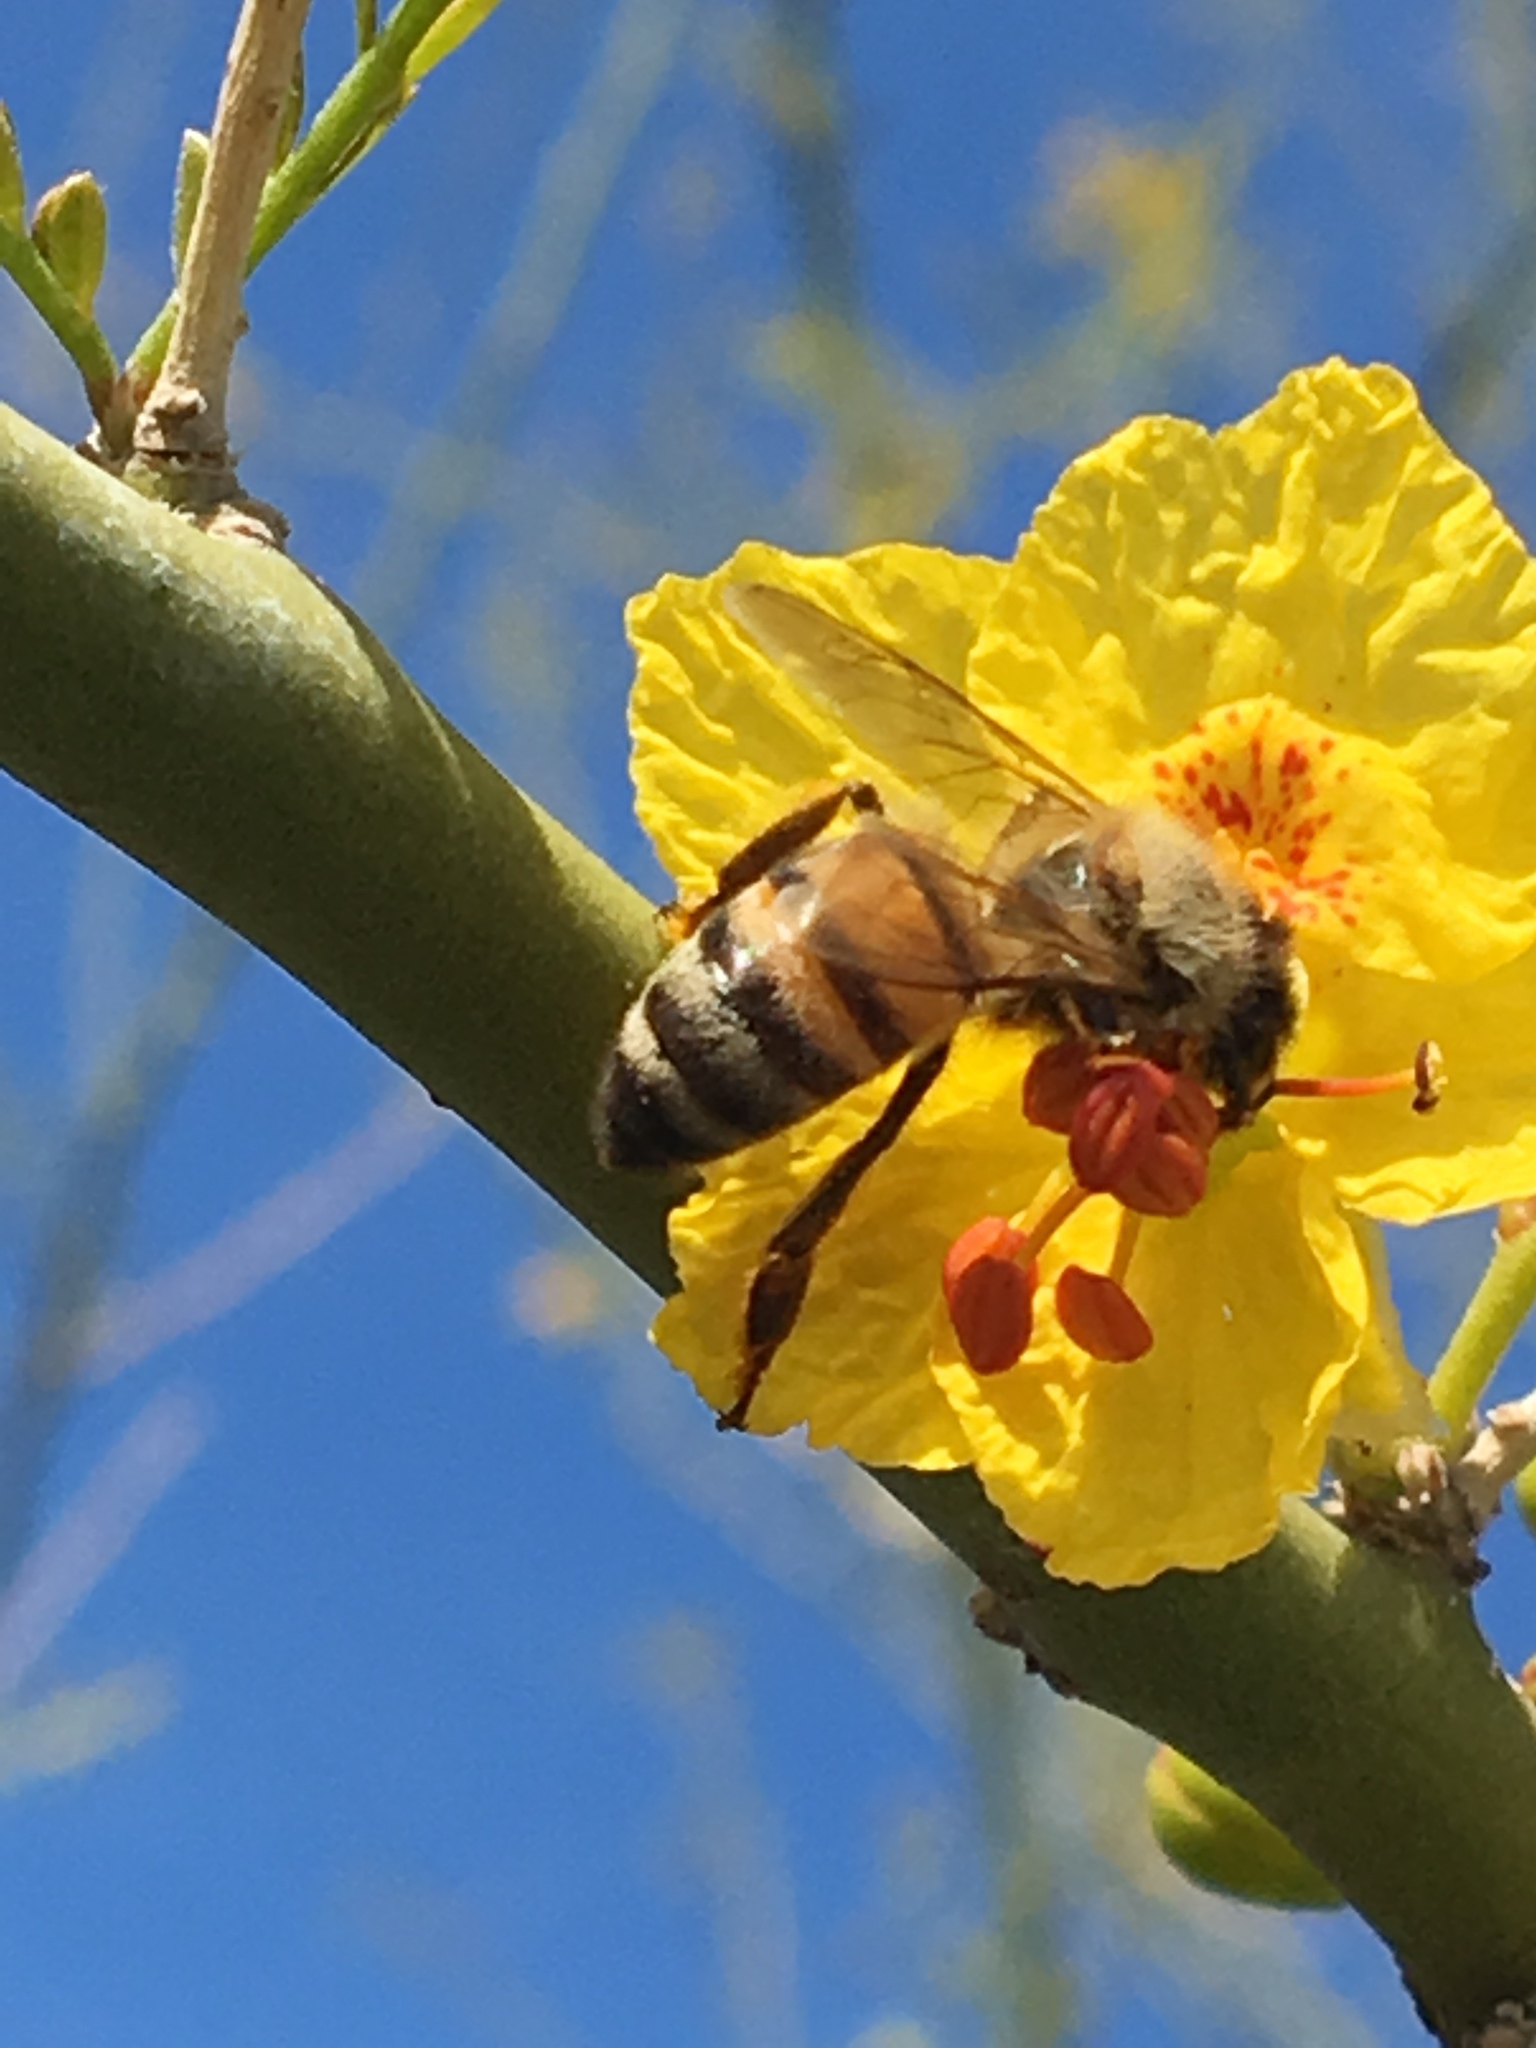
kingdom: Animalia
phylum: Arthropoda
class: Insecta
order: Hymenoptera
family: Apidae
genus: Apis
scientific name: Apis mellifera
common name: Honey bee
